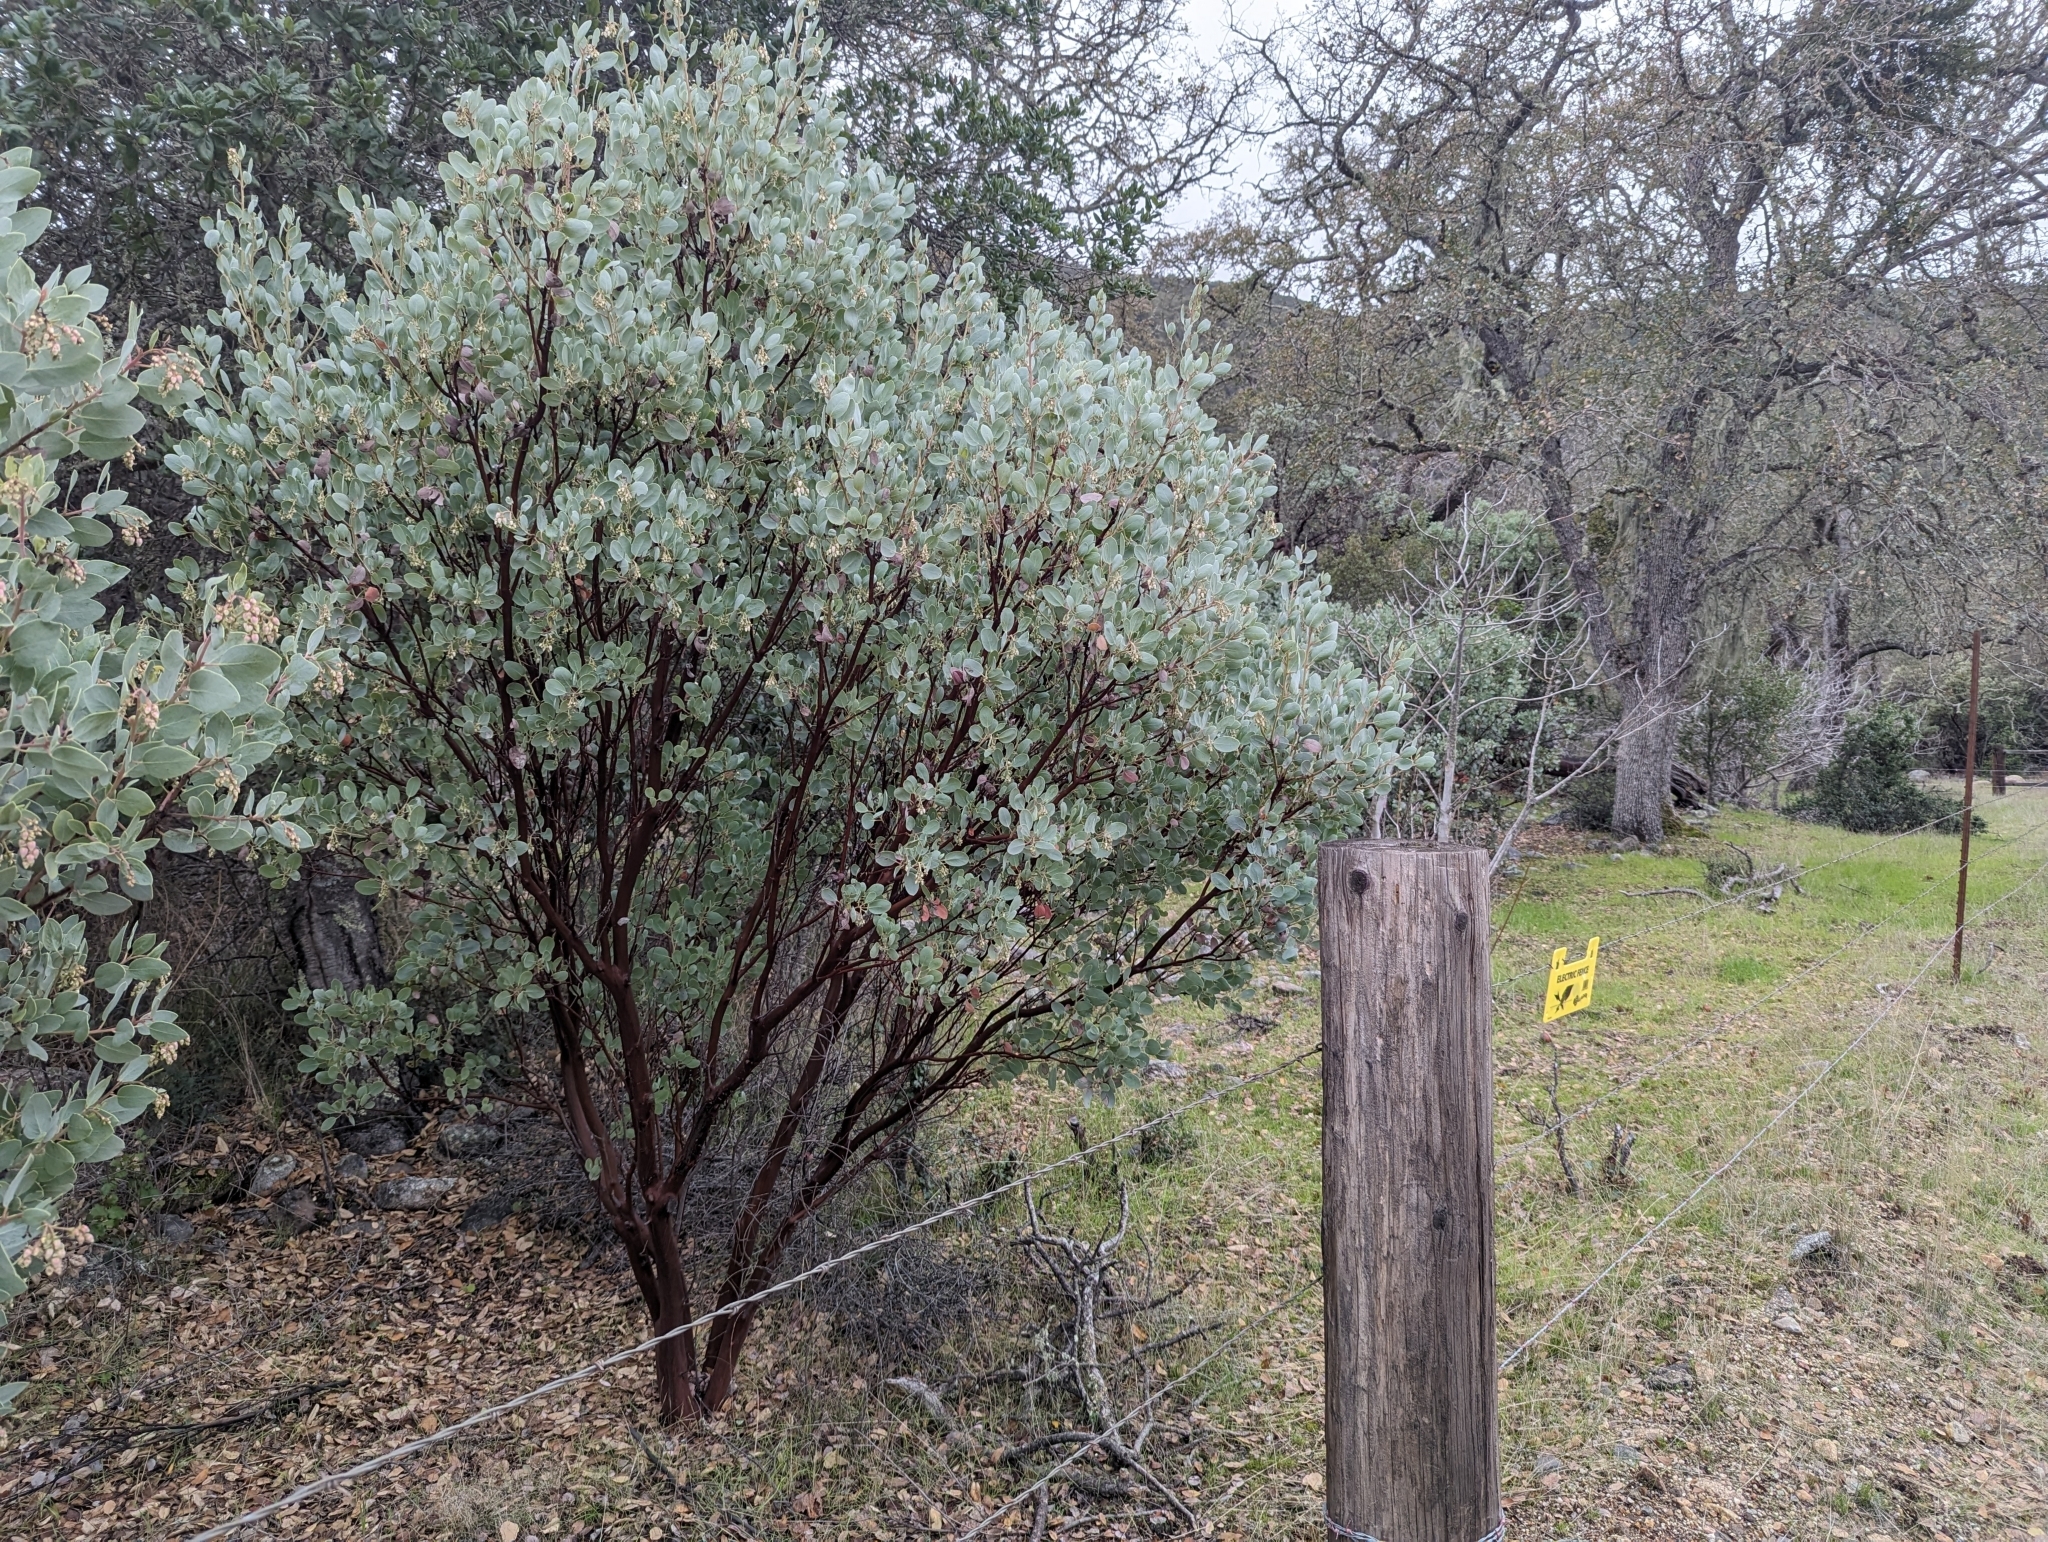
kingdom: Plantae
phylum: Tracheophyta
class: Magnoliopsida
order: Ericales
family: Ericaceae
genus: Arctostaphylos
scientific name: Arctostaphylos glauca
